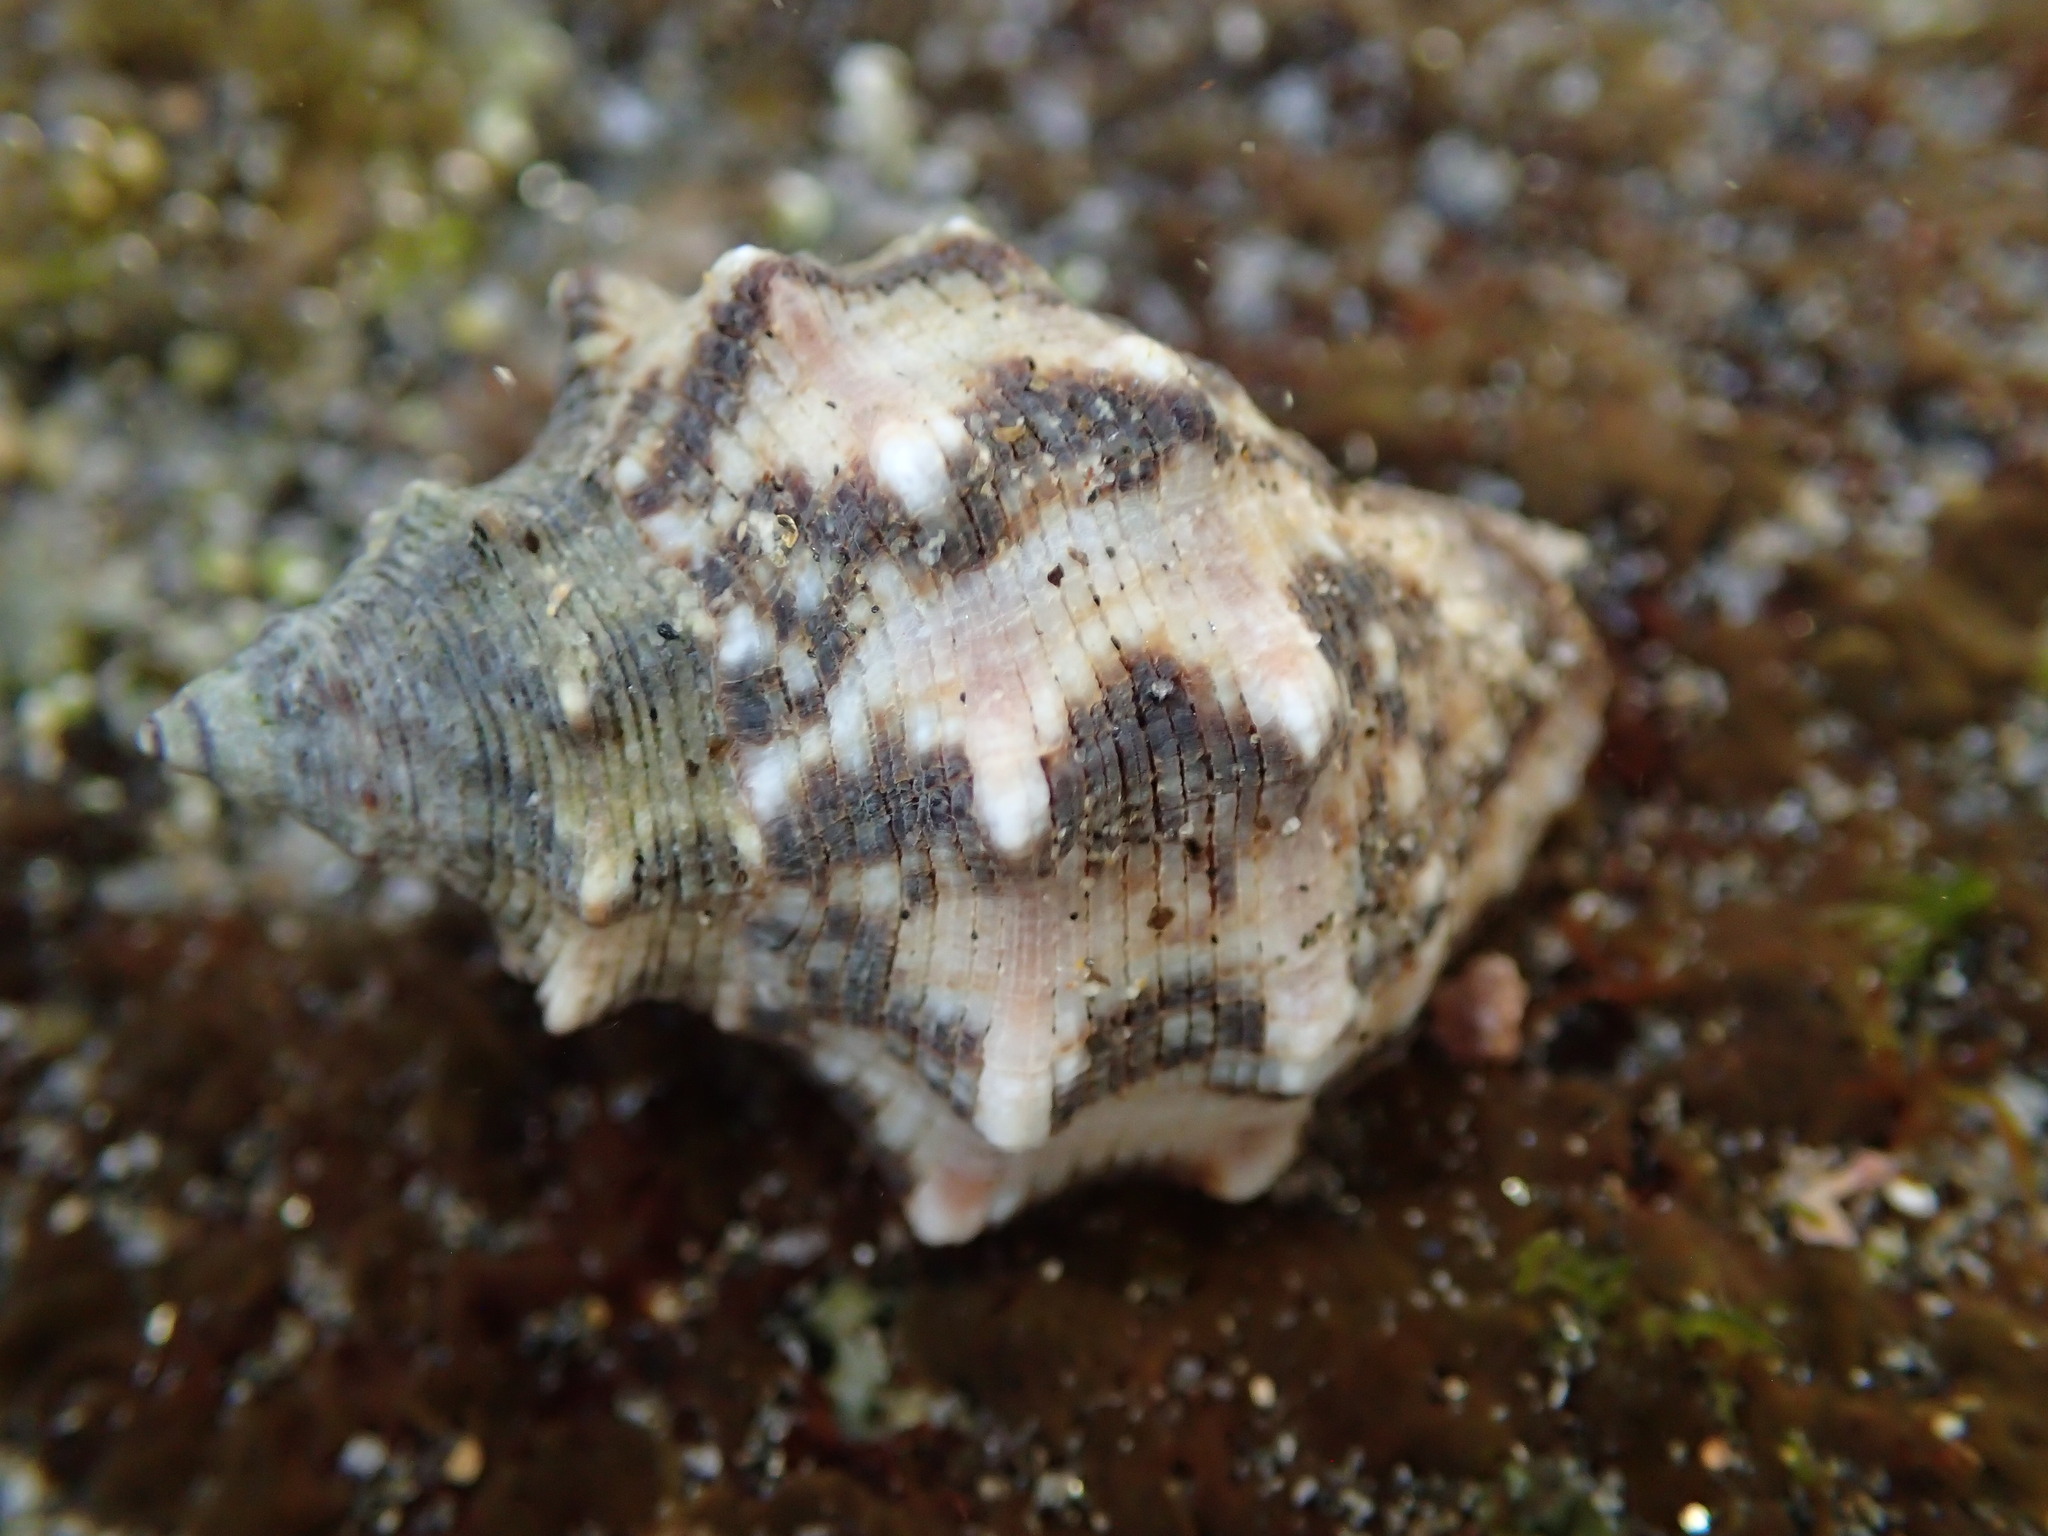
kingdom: Animalia
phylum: Mollusca
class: Gastropoda
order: Neogastropoda
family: Muricidae
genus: Stramonita
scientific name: Stramonita biserialis
